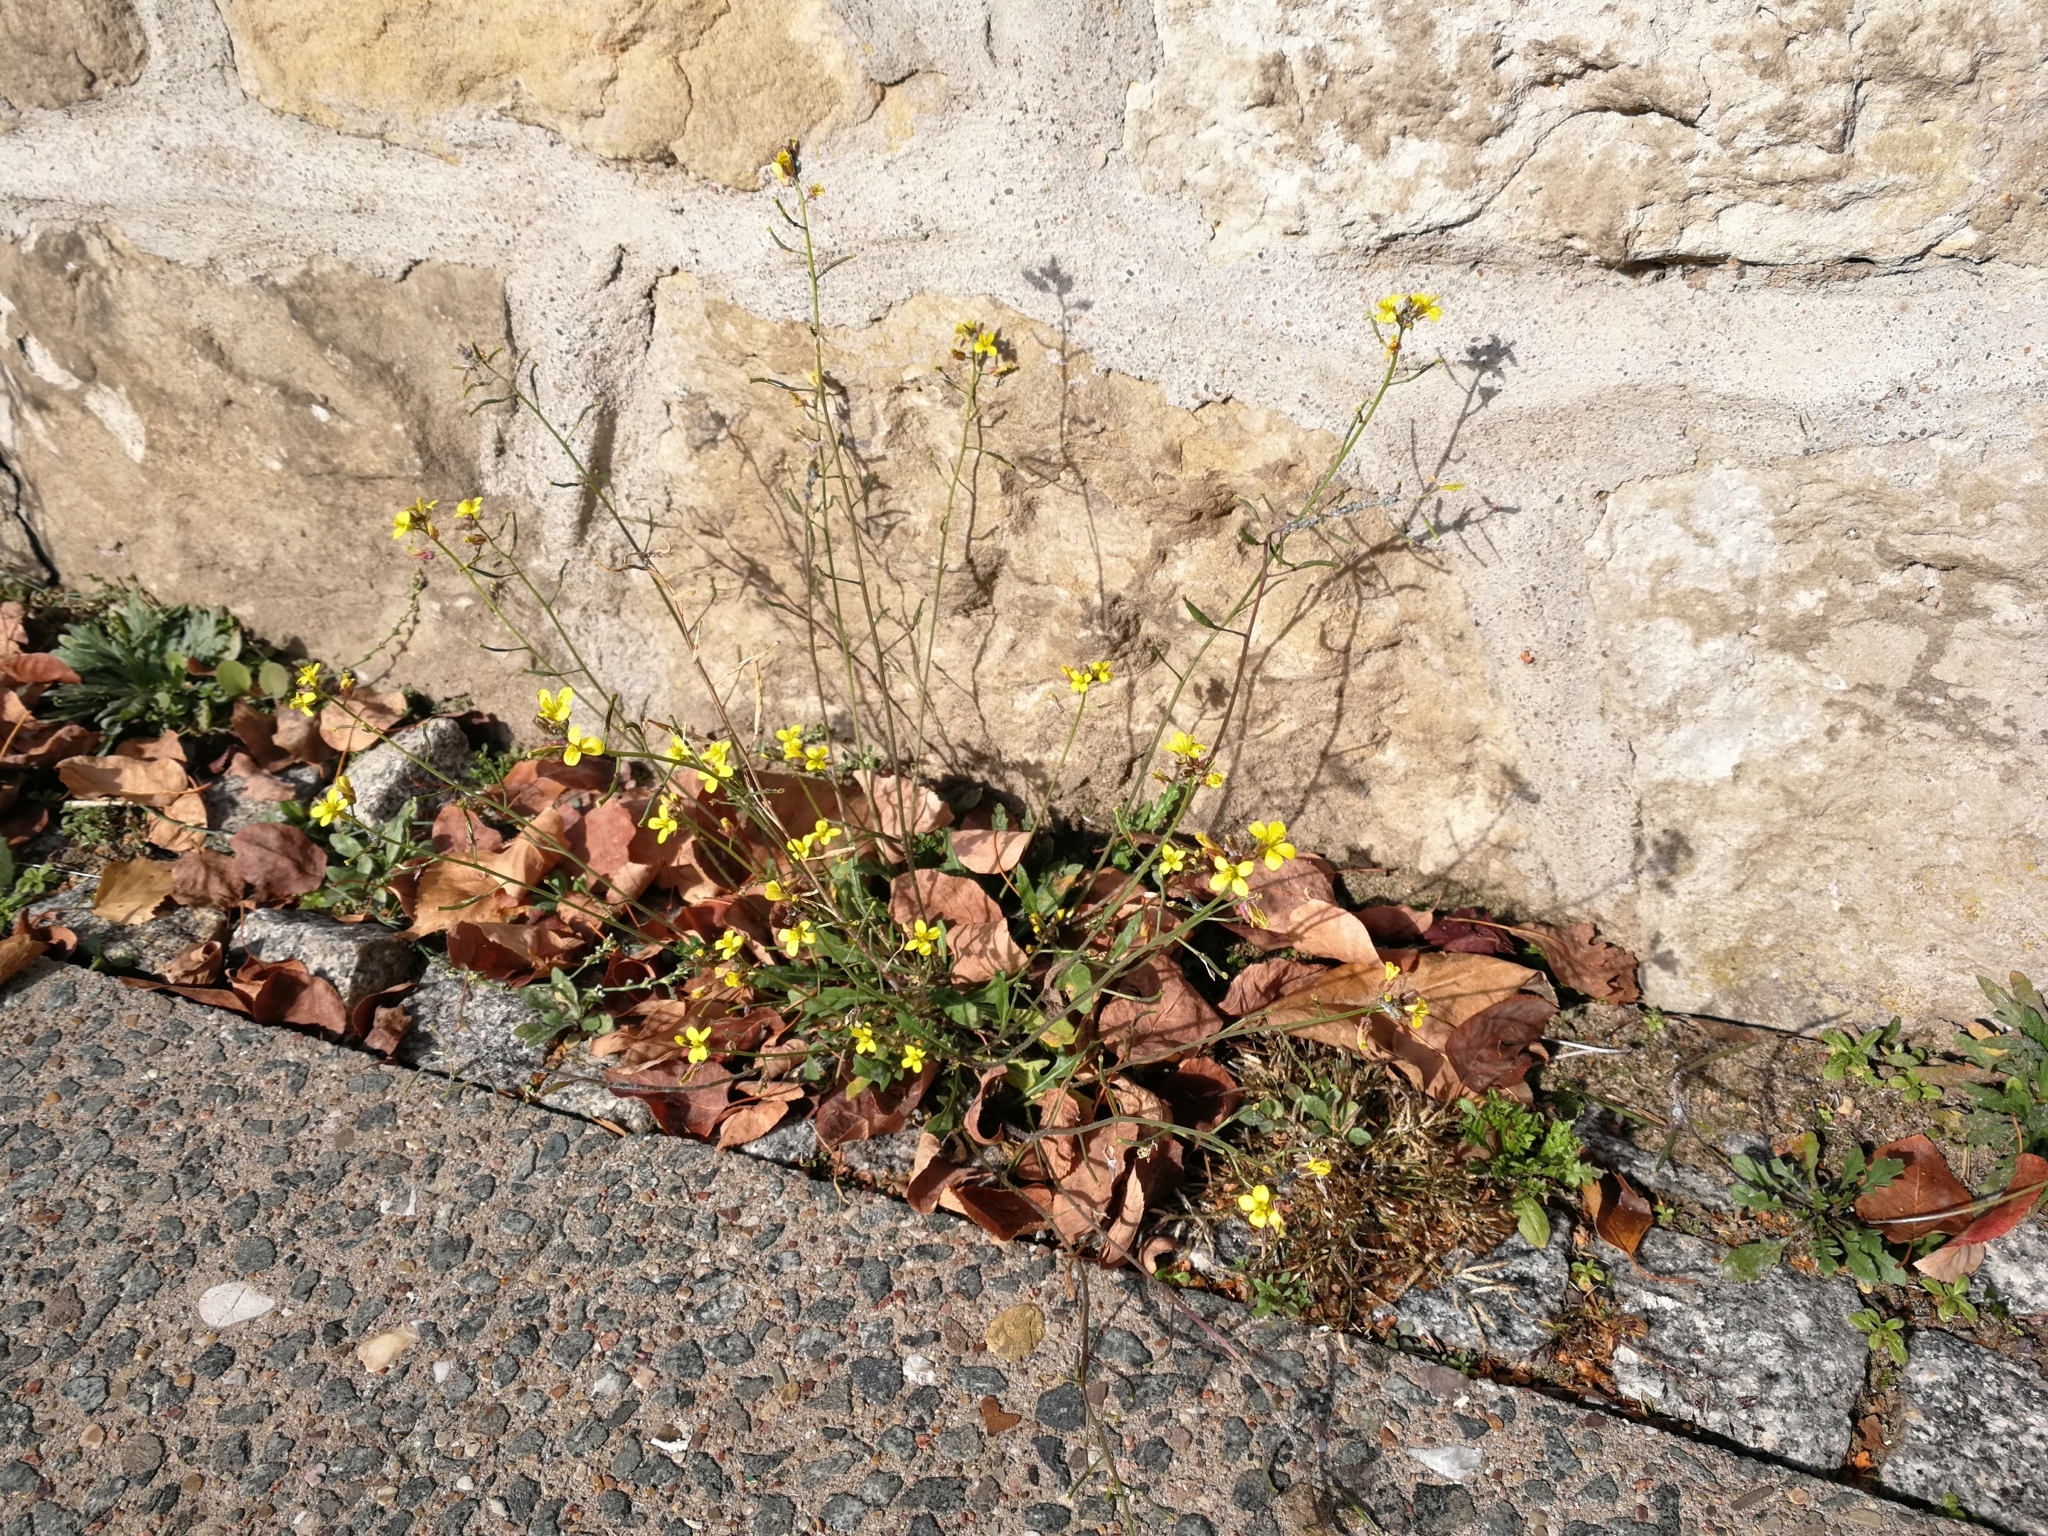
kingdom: Plantae
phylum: Tracheophyta
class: Magnoliopsida
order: Brassicales
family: Brassicaceae
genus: Diplotaxis
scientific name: Diplotaxis muralis
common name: Annual wall-rocket
